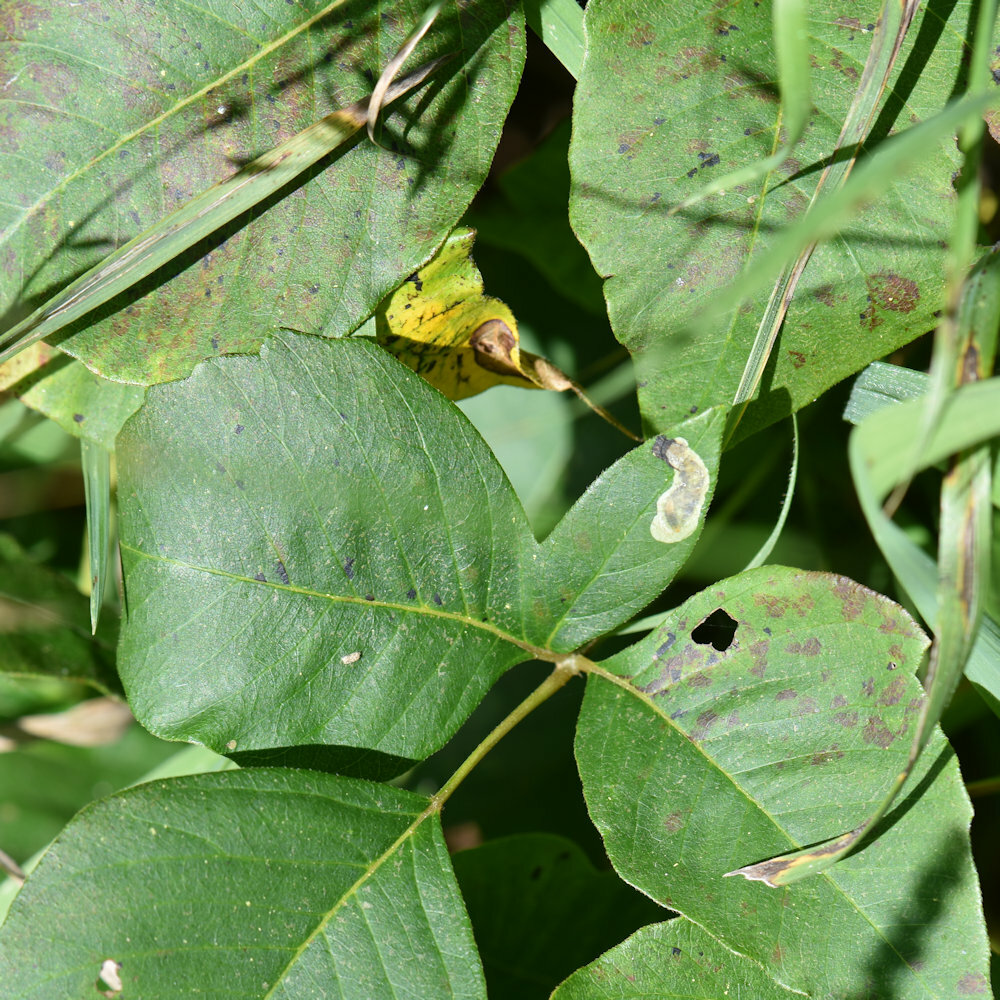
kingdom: Animalia
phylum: Arthropoda
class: Insecta
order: Lepidoptera
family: Gracillariidae
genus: Cameraria
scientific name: Cameraria guttifinitella
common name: Poison ivy leaf-miner moth
